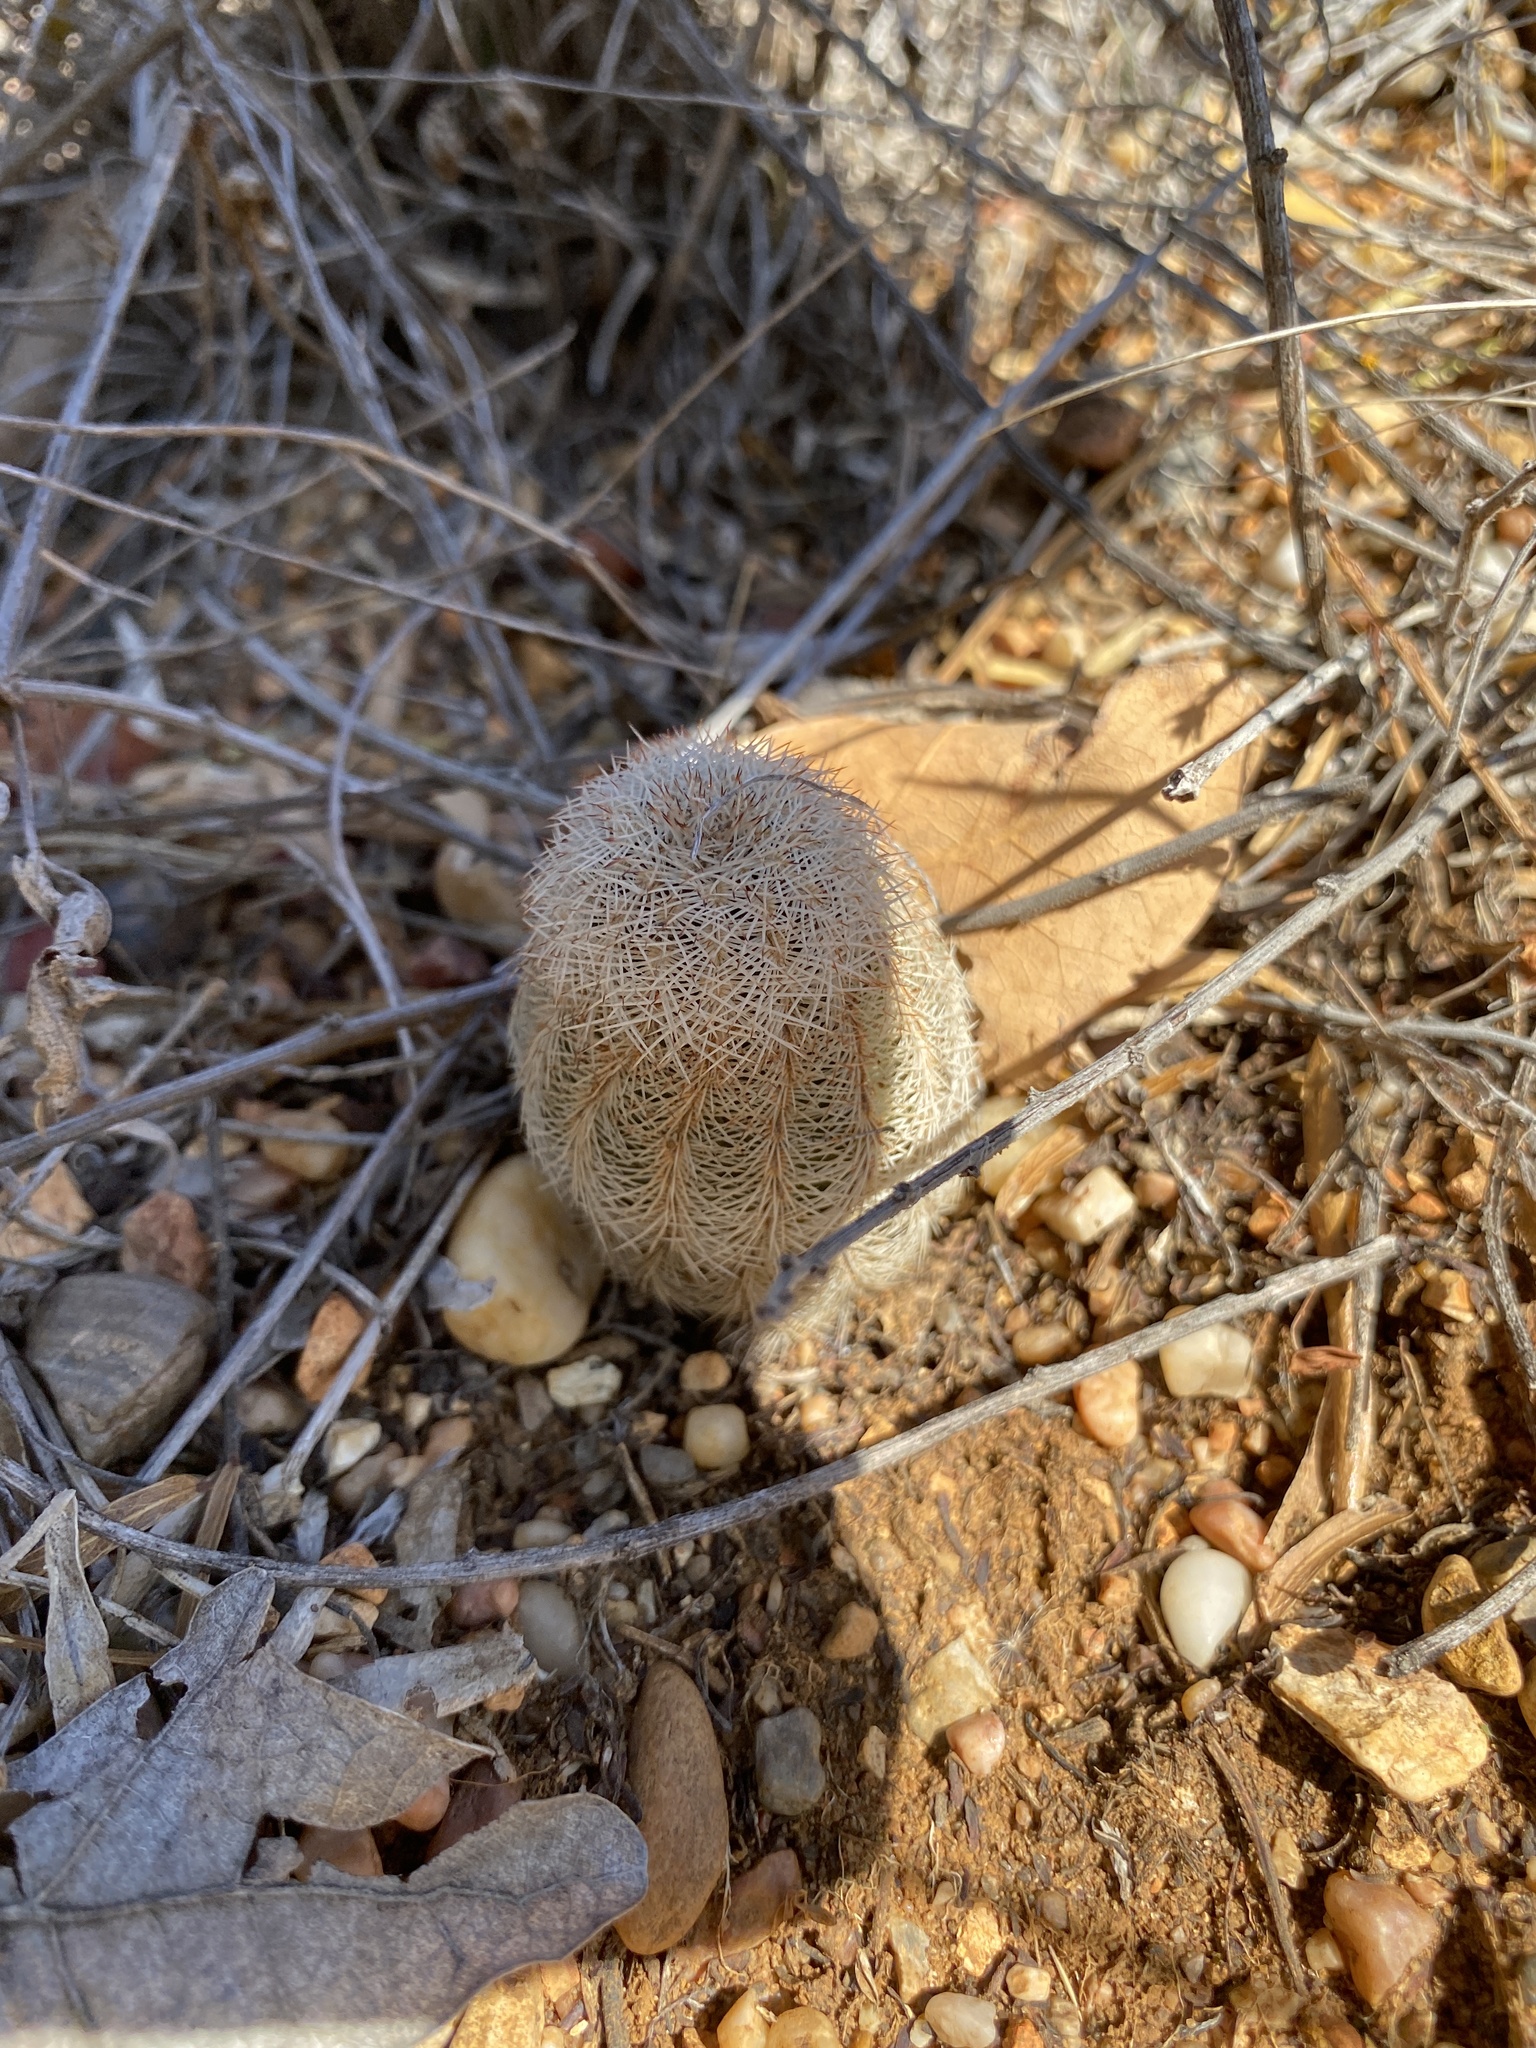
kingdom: Plantae
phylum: Tracheophyta
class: Magnoliopsida
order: Caryophyllales
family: Cactaceae
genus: Echinocereus
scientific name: Echinocereus reichenbachii
